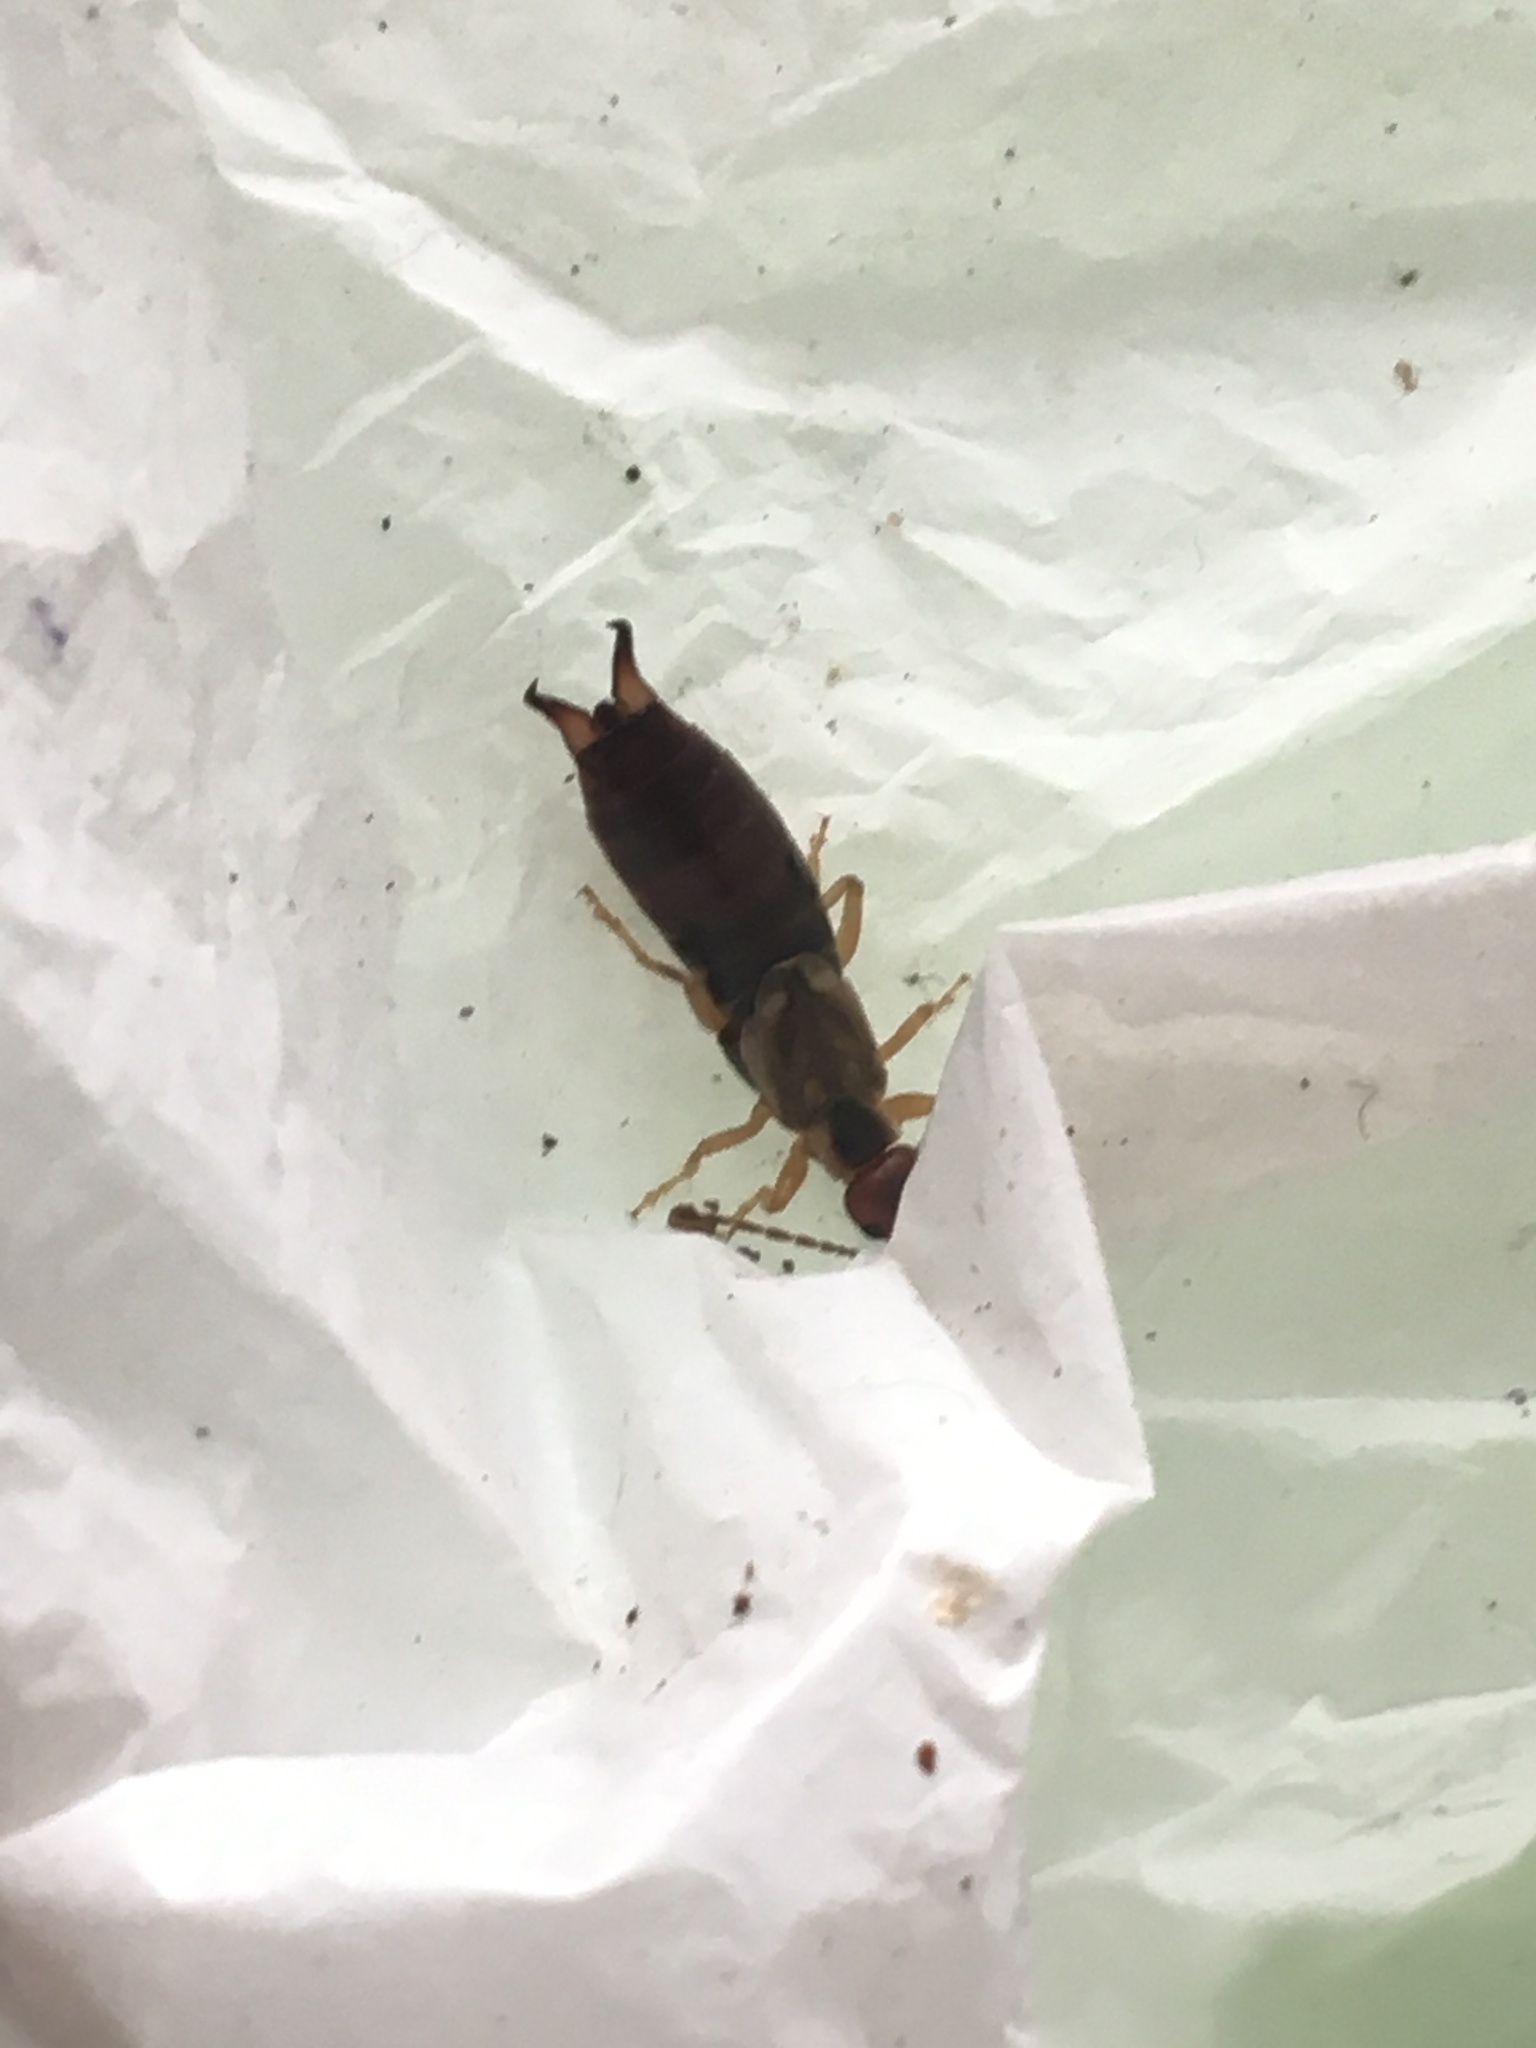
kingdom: Animalia
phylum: Arthropoda
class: Insecta
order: Dermaptera
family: Forficulidae
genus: Forficula
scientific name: Forficula
